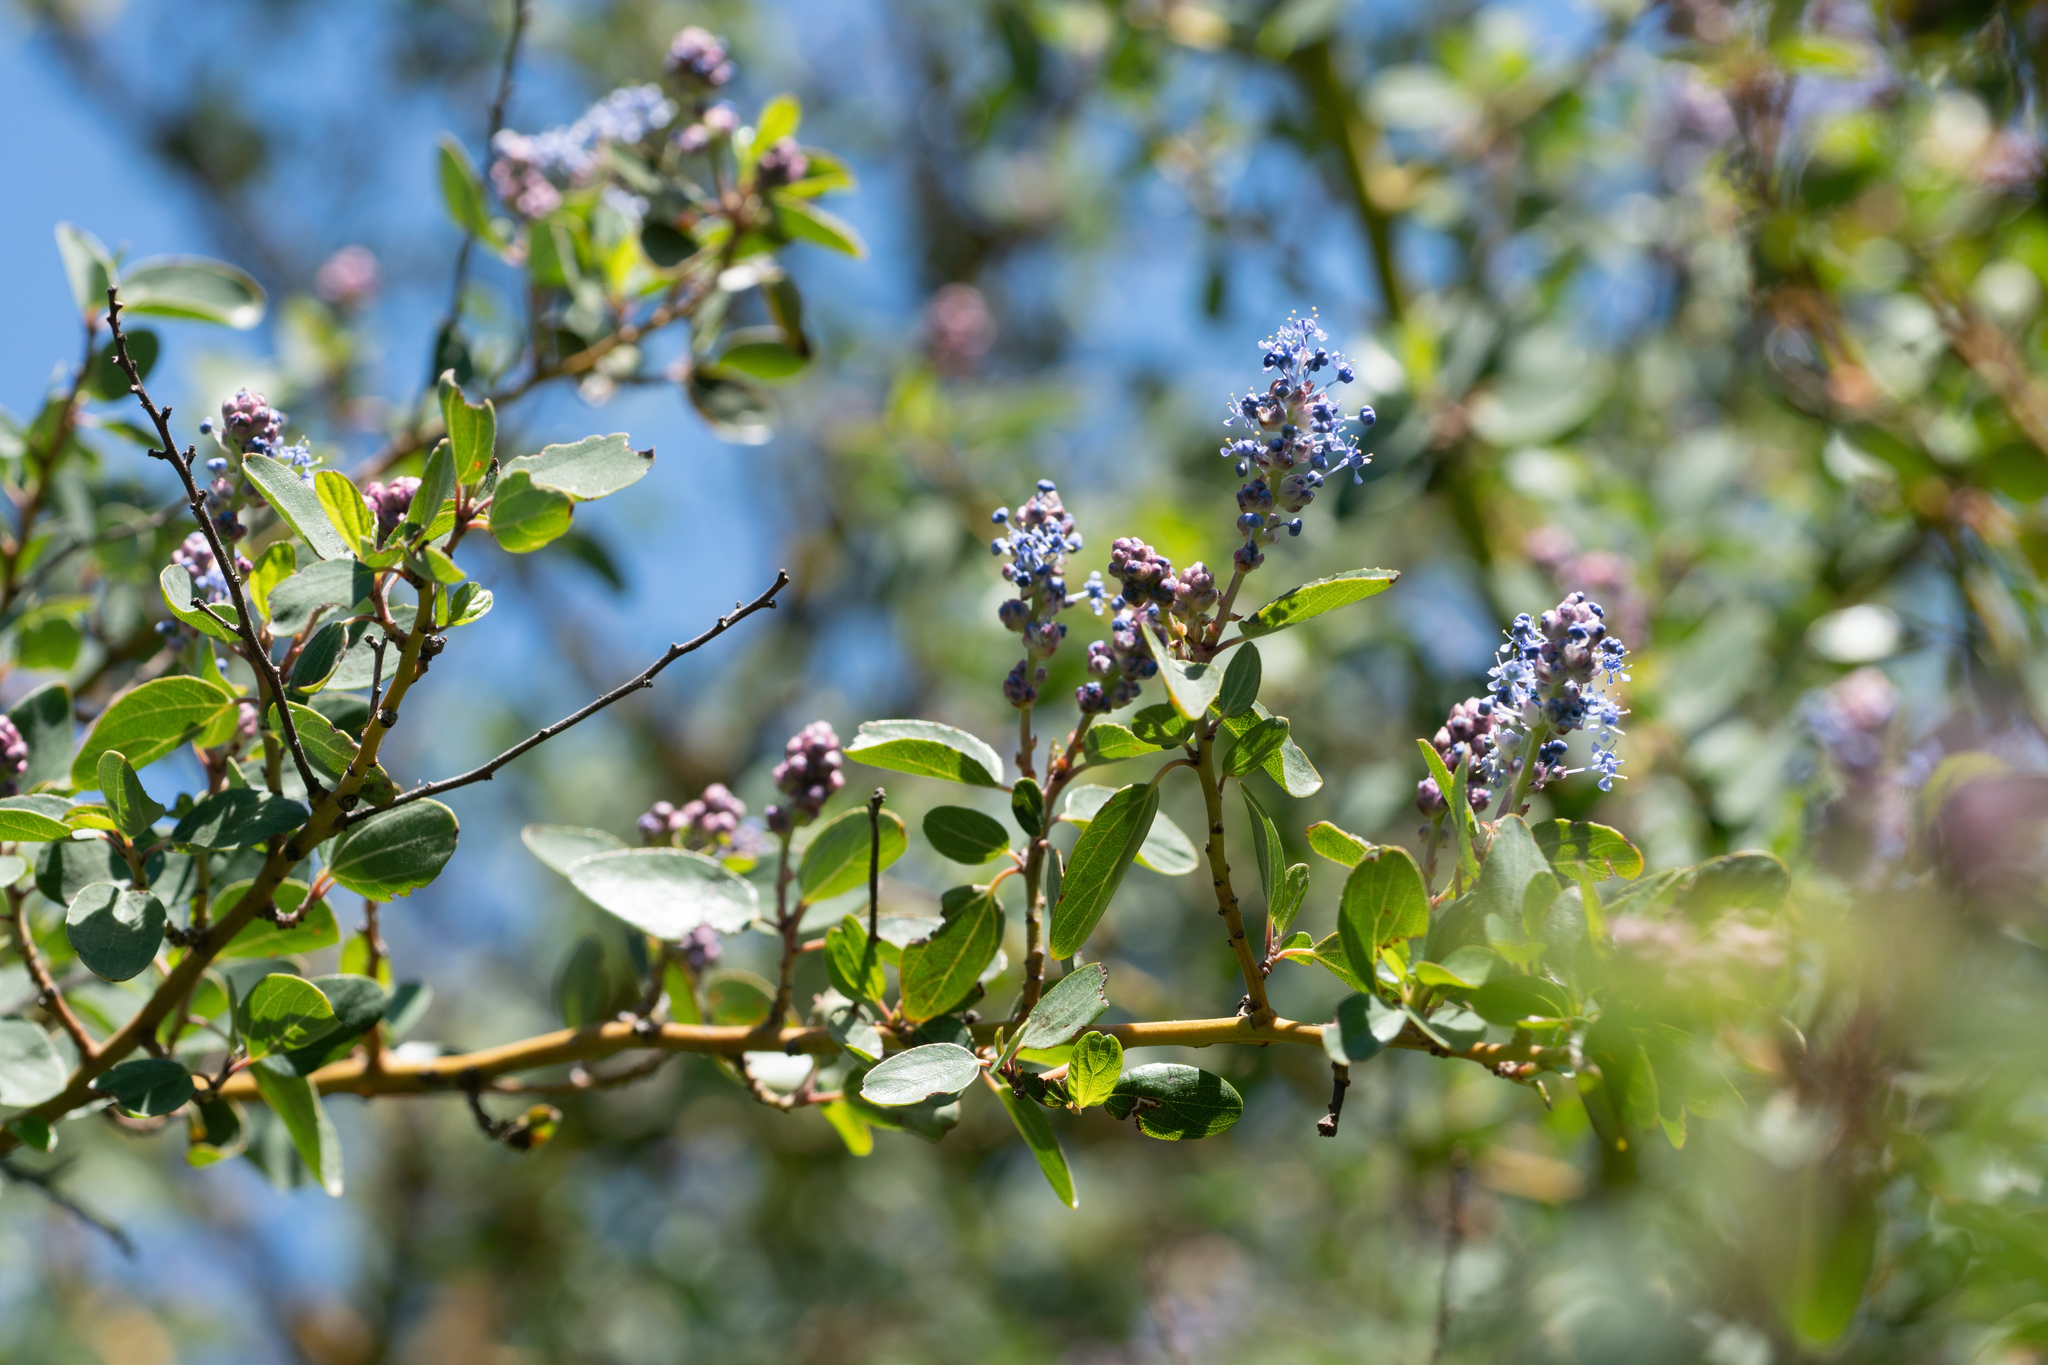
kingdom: Plantae
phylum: Tracheophyta
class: Magnoliopsida
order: Rosales
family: Rhamnaceae
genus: Ceanothus
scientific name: Ceanothus leucodermis
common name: Chaparral whitethorn
